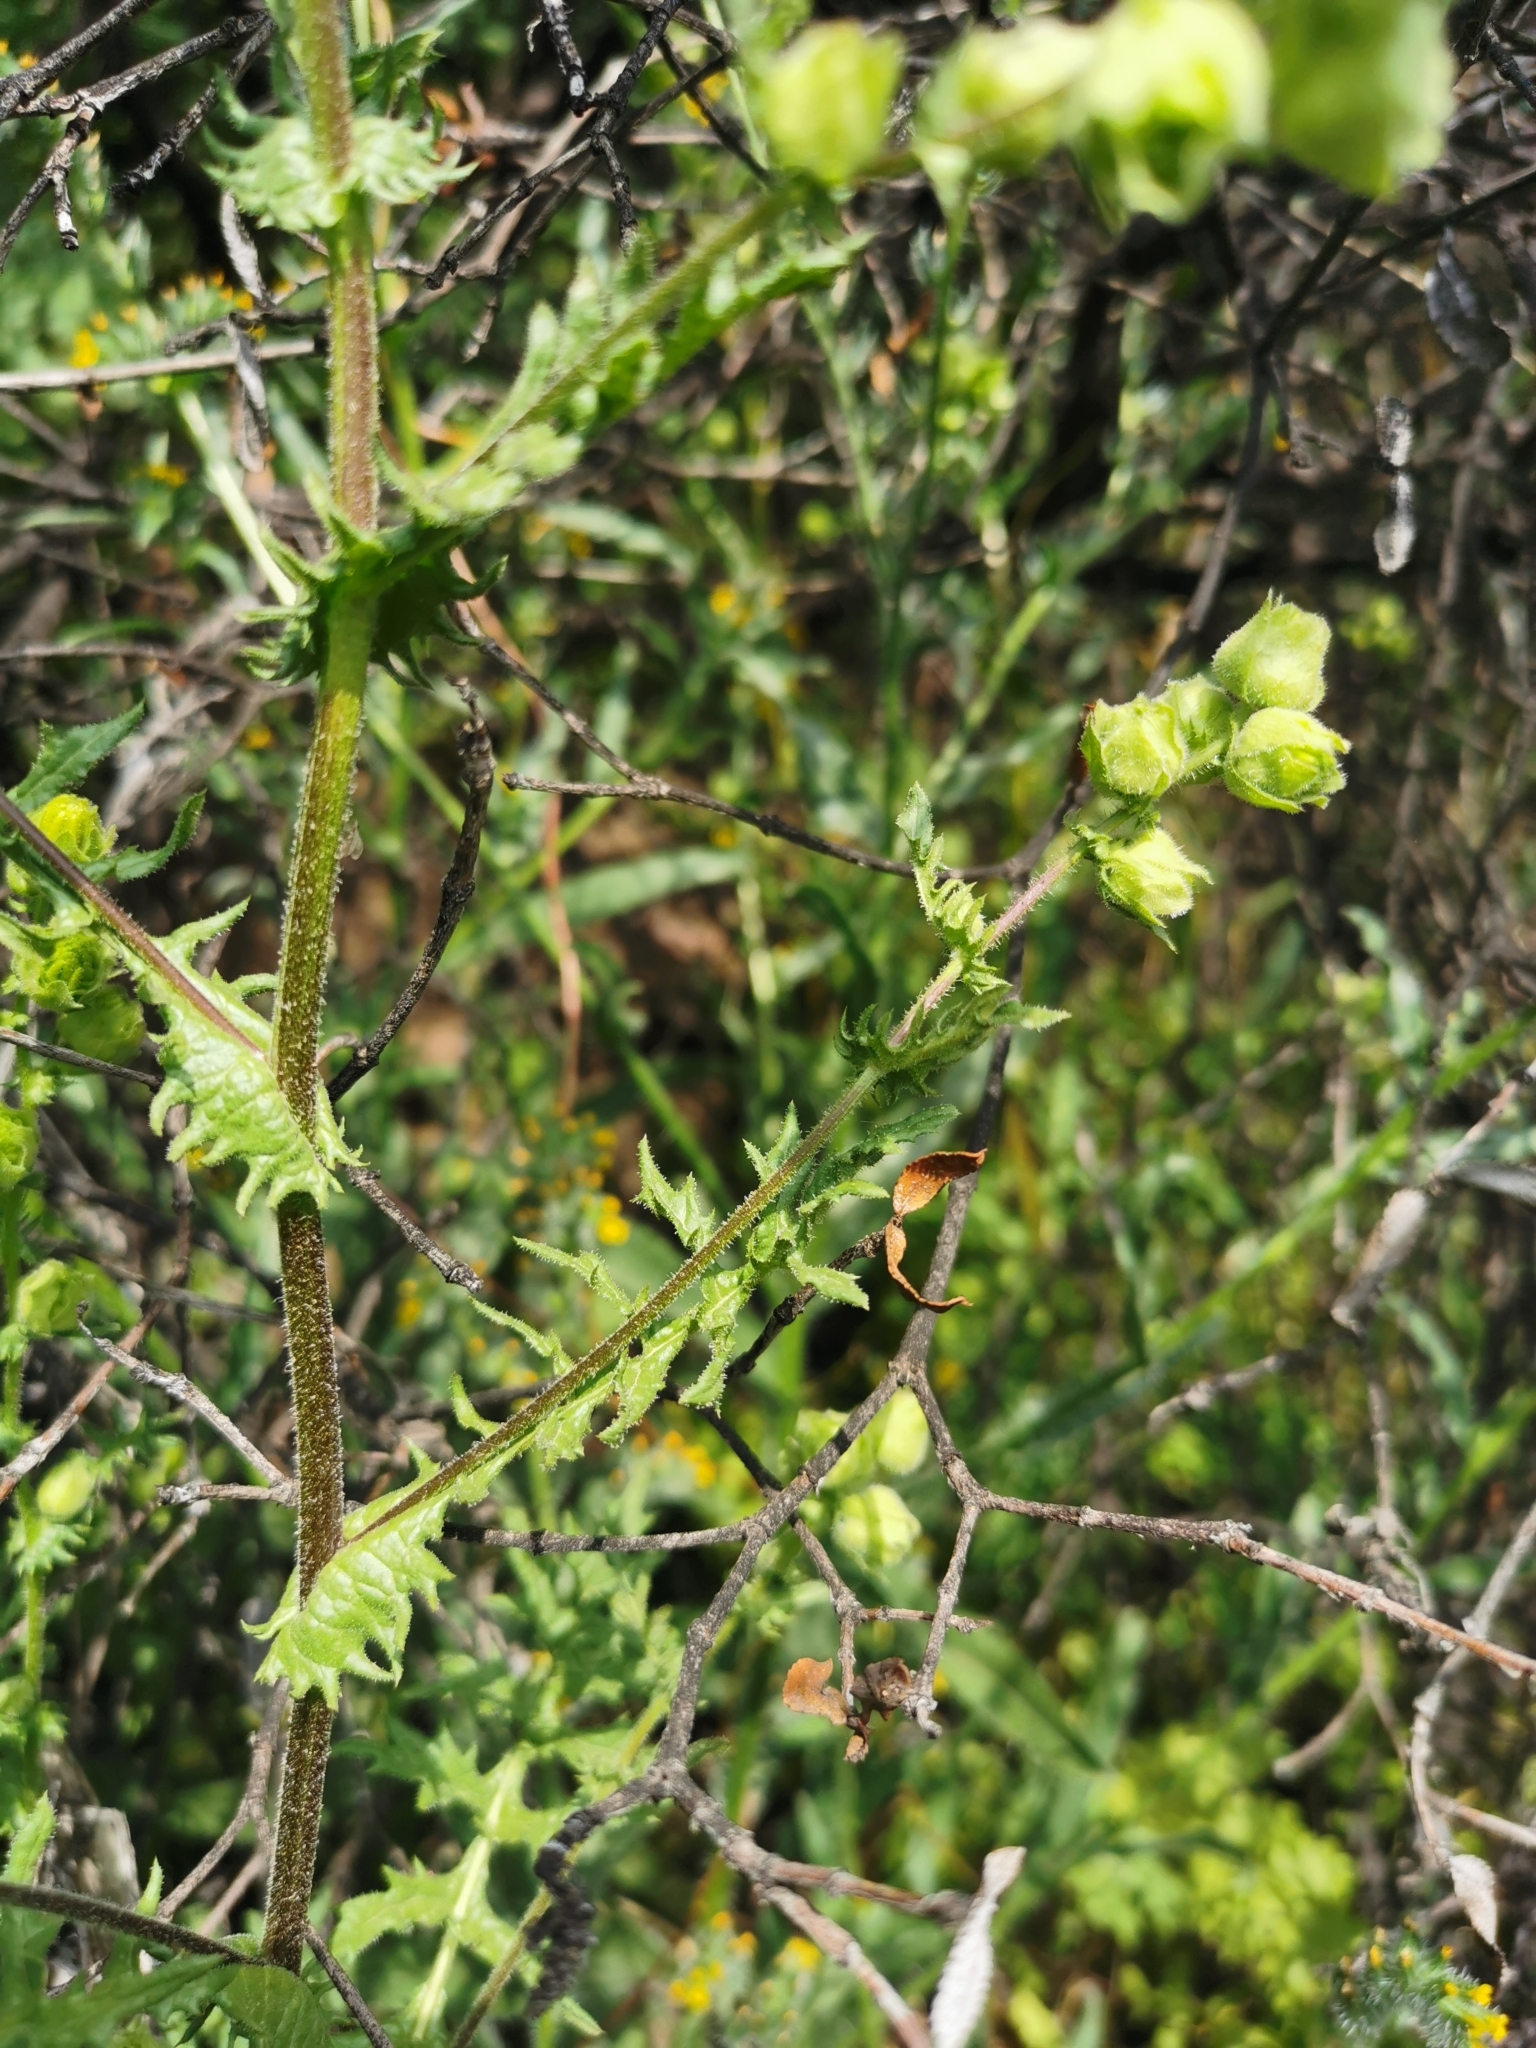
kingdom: Plantae
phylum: Tracheophyta
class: Magnoliopsida
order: Asterales
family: Asteraceae
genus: Moscharia
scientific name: Moscharia pinnatifida
